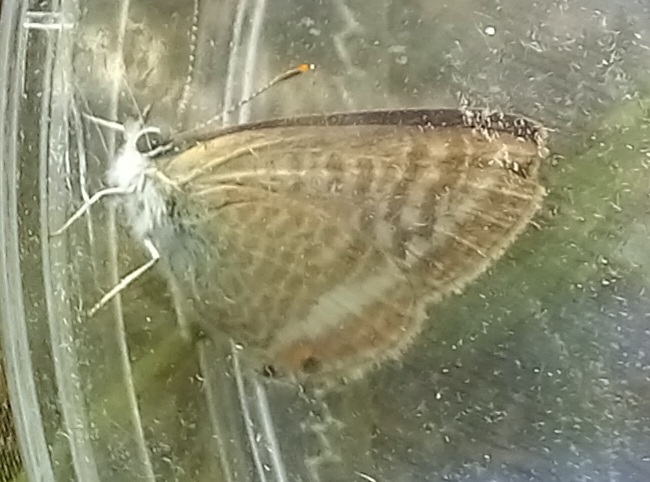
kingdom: Animalia
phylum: Arthropoda
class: Insecta
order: Lepidoptera
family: Lycaenidae
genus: Lampides
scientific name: Lampides boeticus
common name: Long-tailed blue
